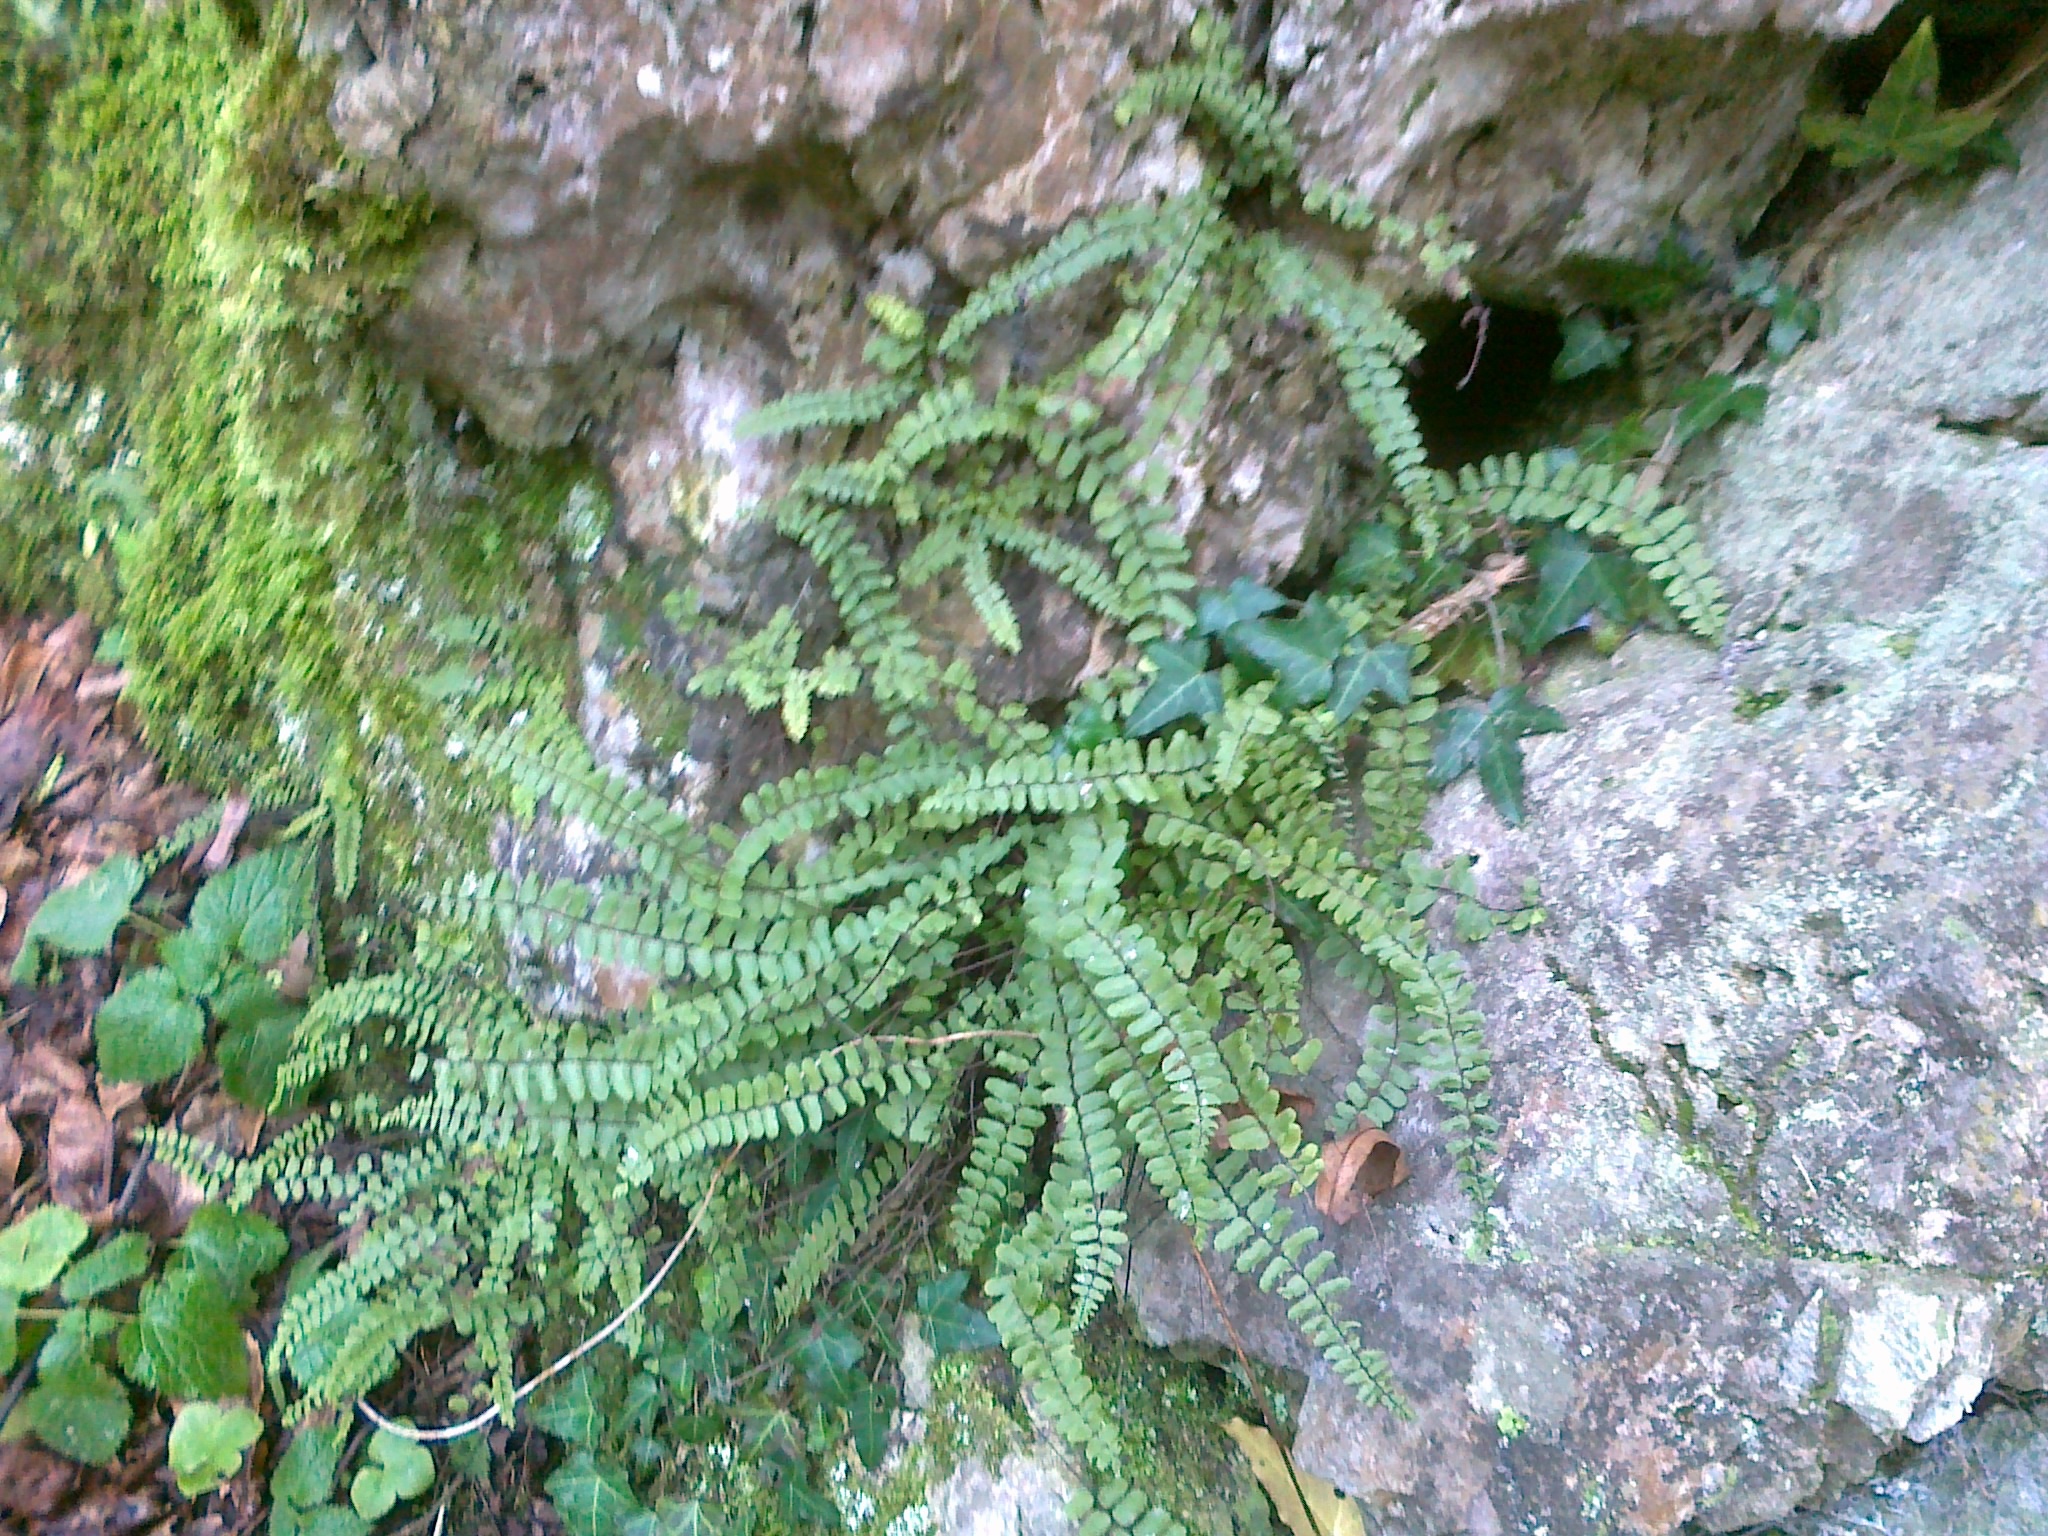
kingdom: Plantae
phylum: Tracheophyta
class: Polypodiopsida
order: Polypodiales
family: Aspleniaceae
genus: Asplenium
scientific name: Asplenium trichomanes
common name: Maidenhair spleenwort
